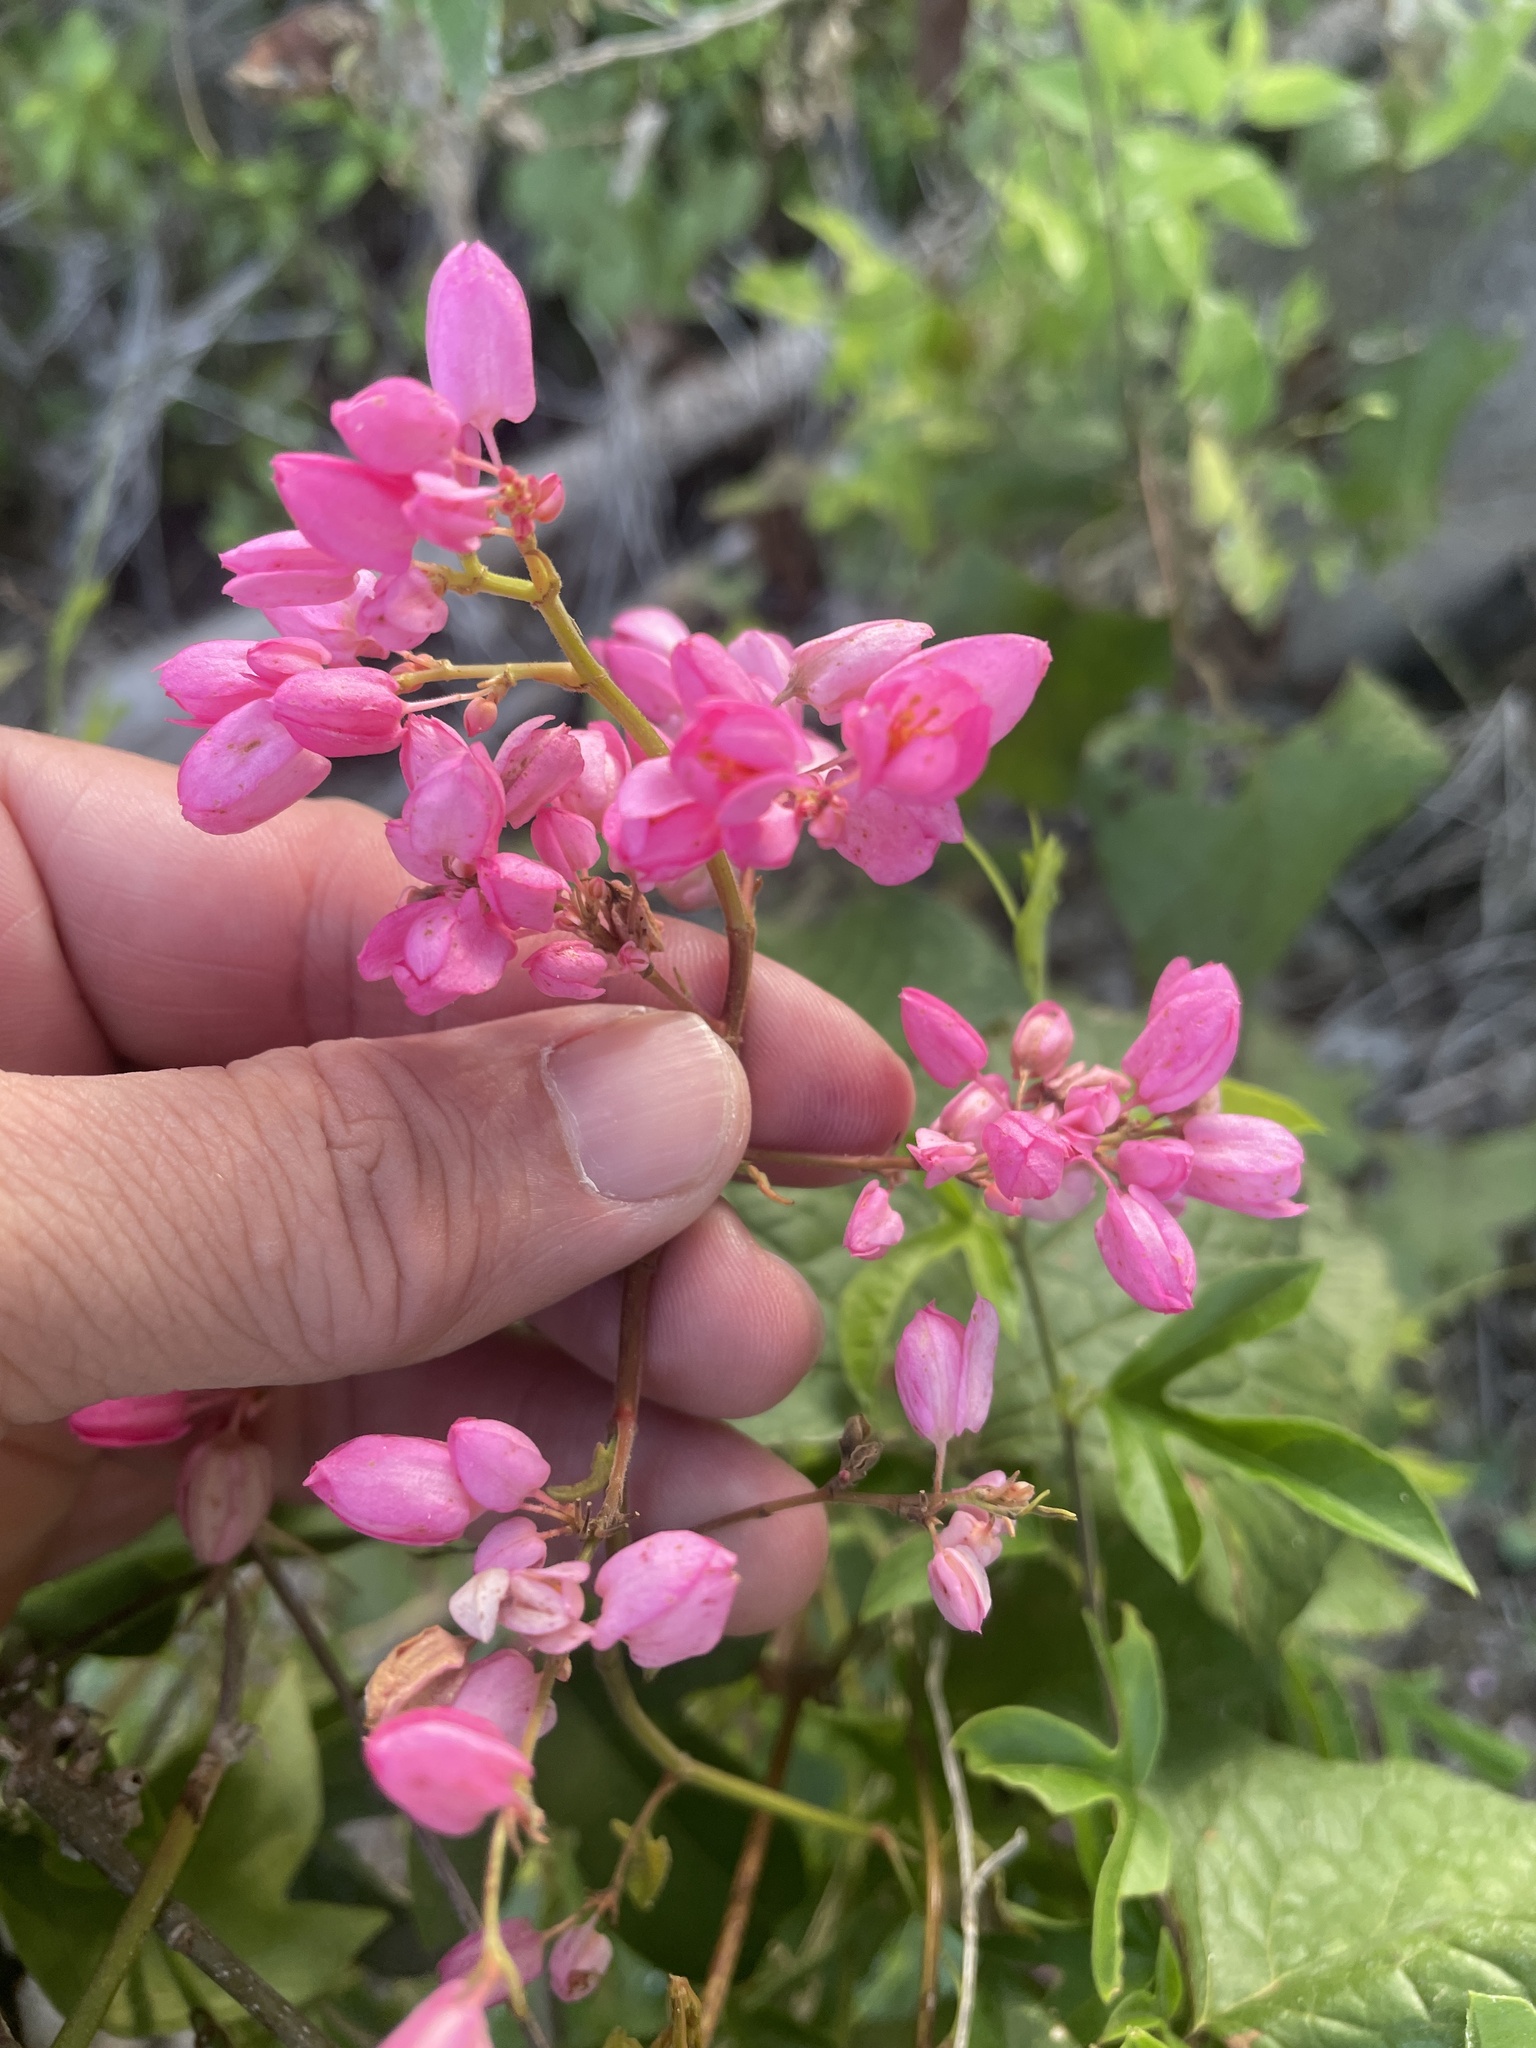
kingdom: Plantae
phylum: Tracheophyta
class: Magnoliopsida
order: Caryophyllales
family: Polygonaceae
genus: Antigonon
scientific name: Antigonon leptopus
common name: Coral vine
